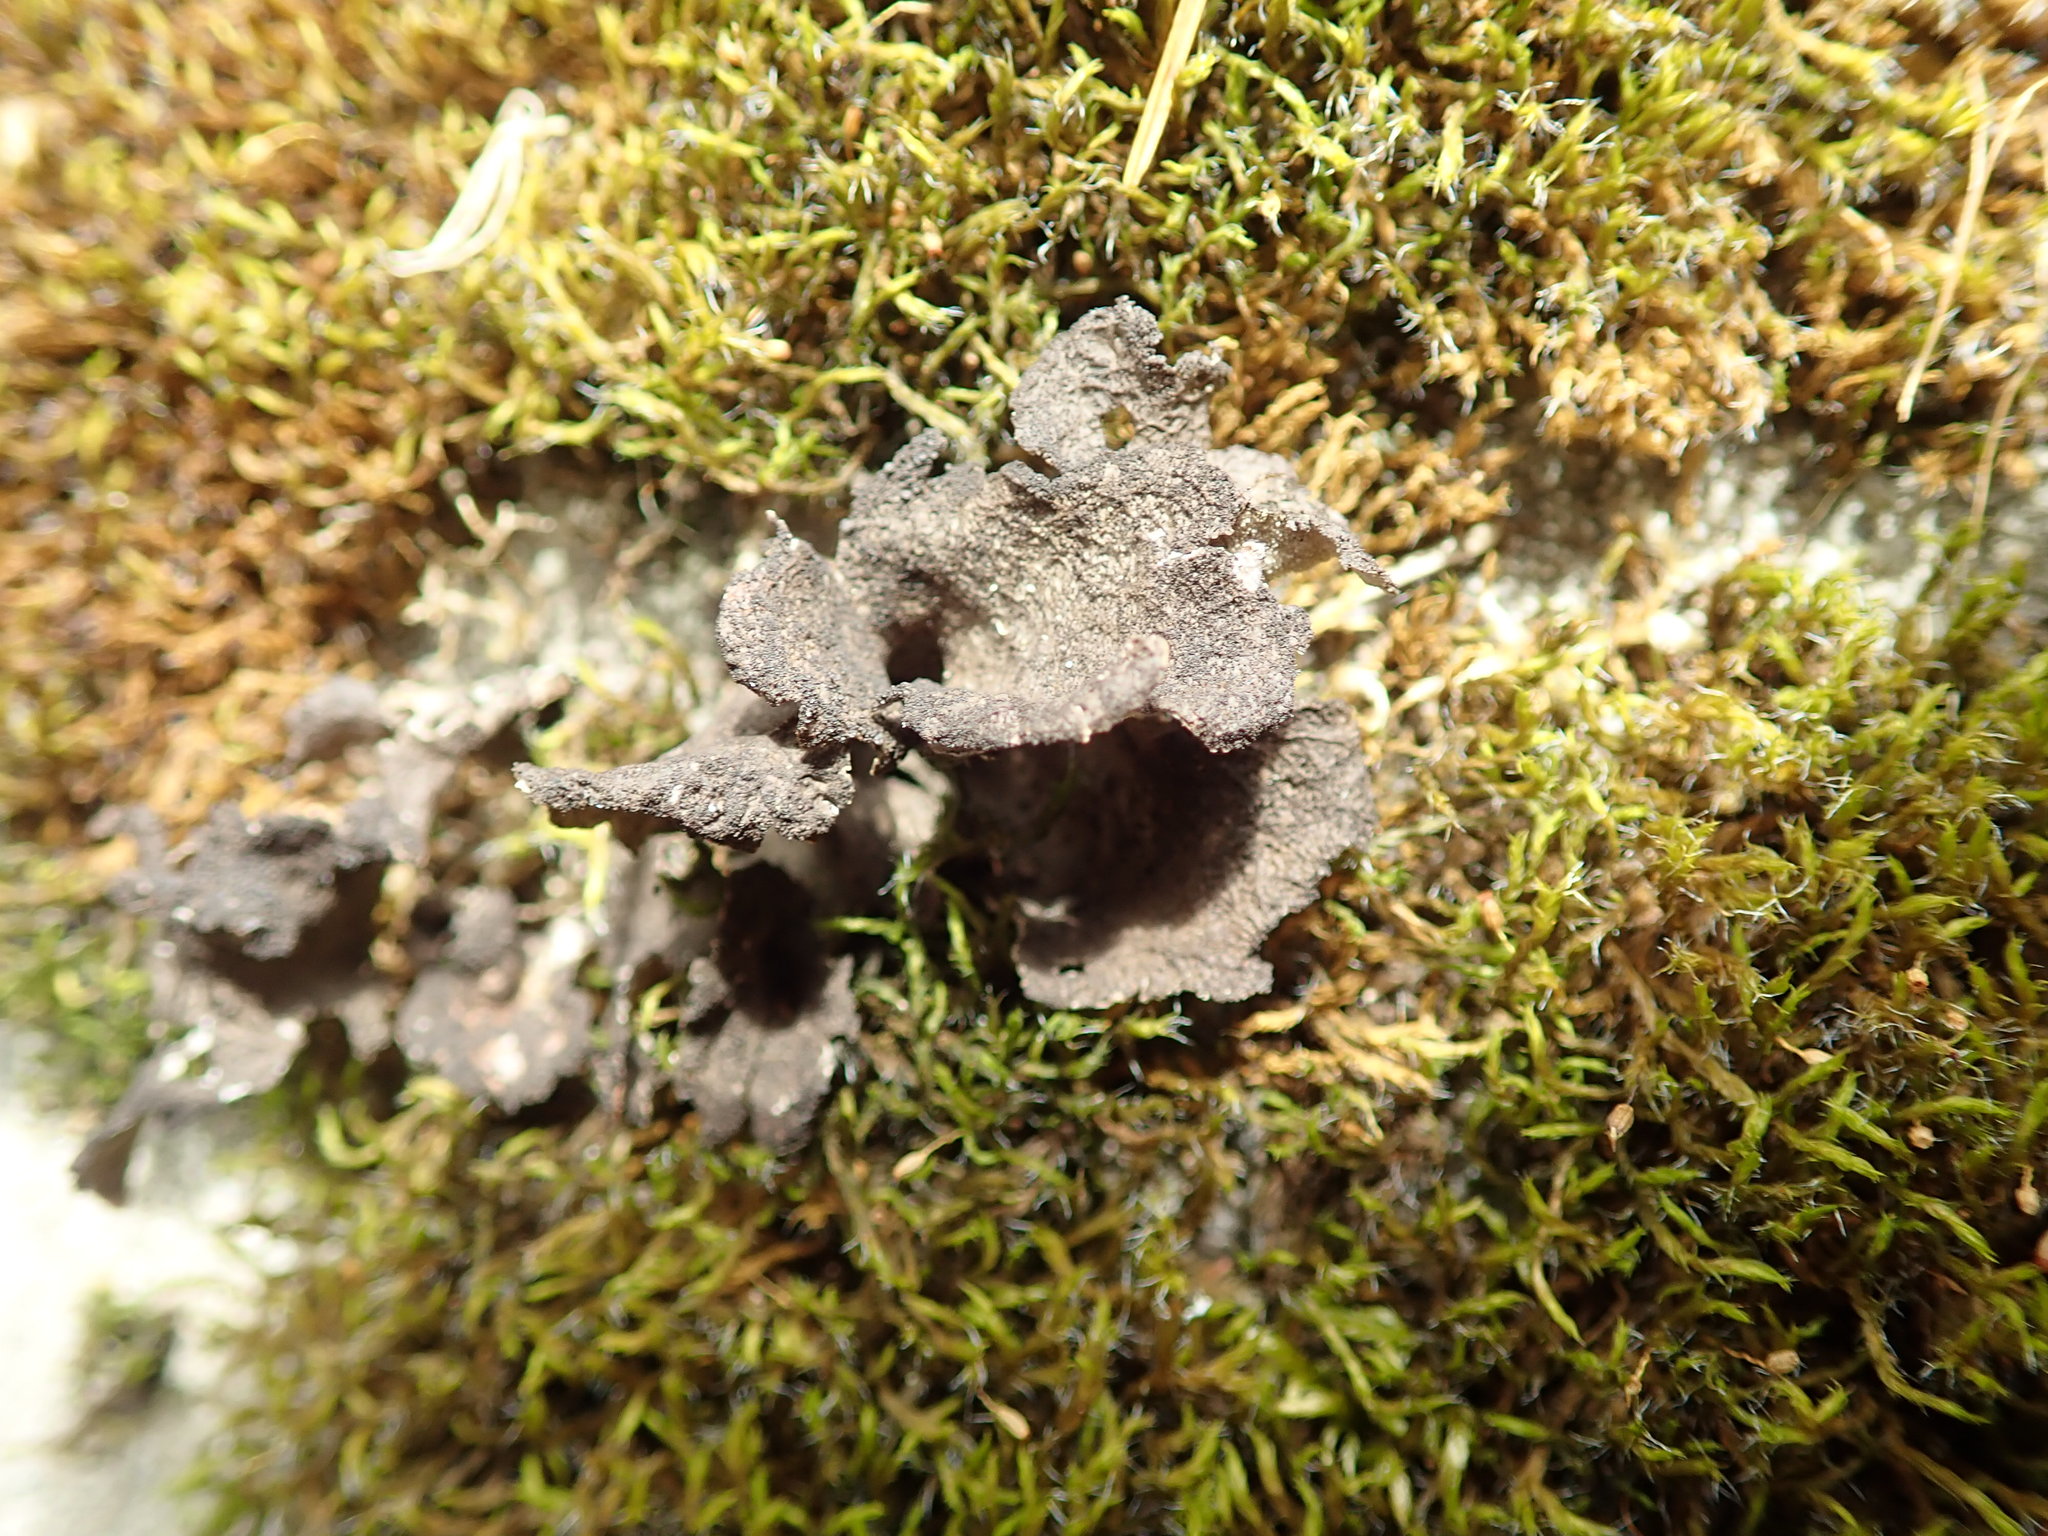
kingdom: Fungi
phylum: Ascomycota
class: Lecanoromycetes
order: Peltigerales
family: Lobariaceae
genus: Sticta
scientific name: Sticta fuliginosa
